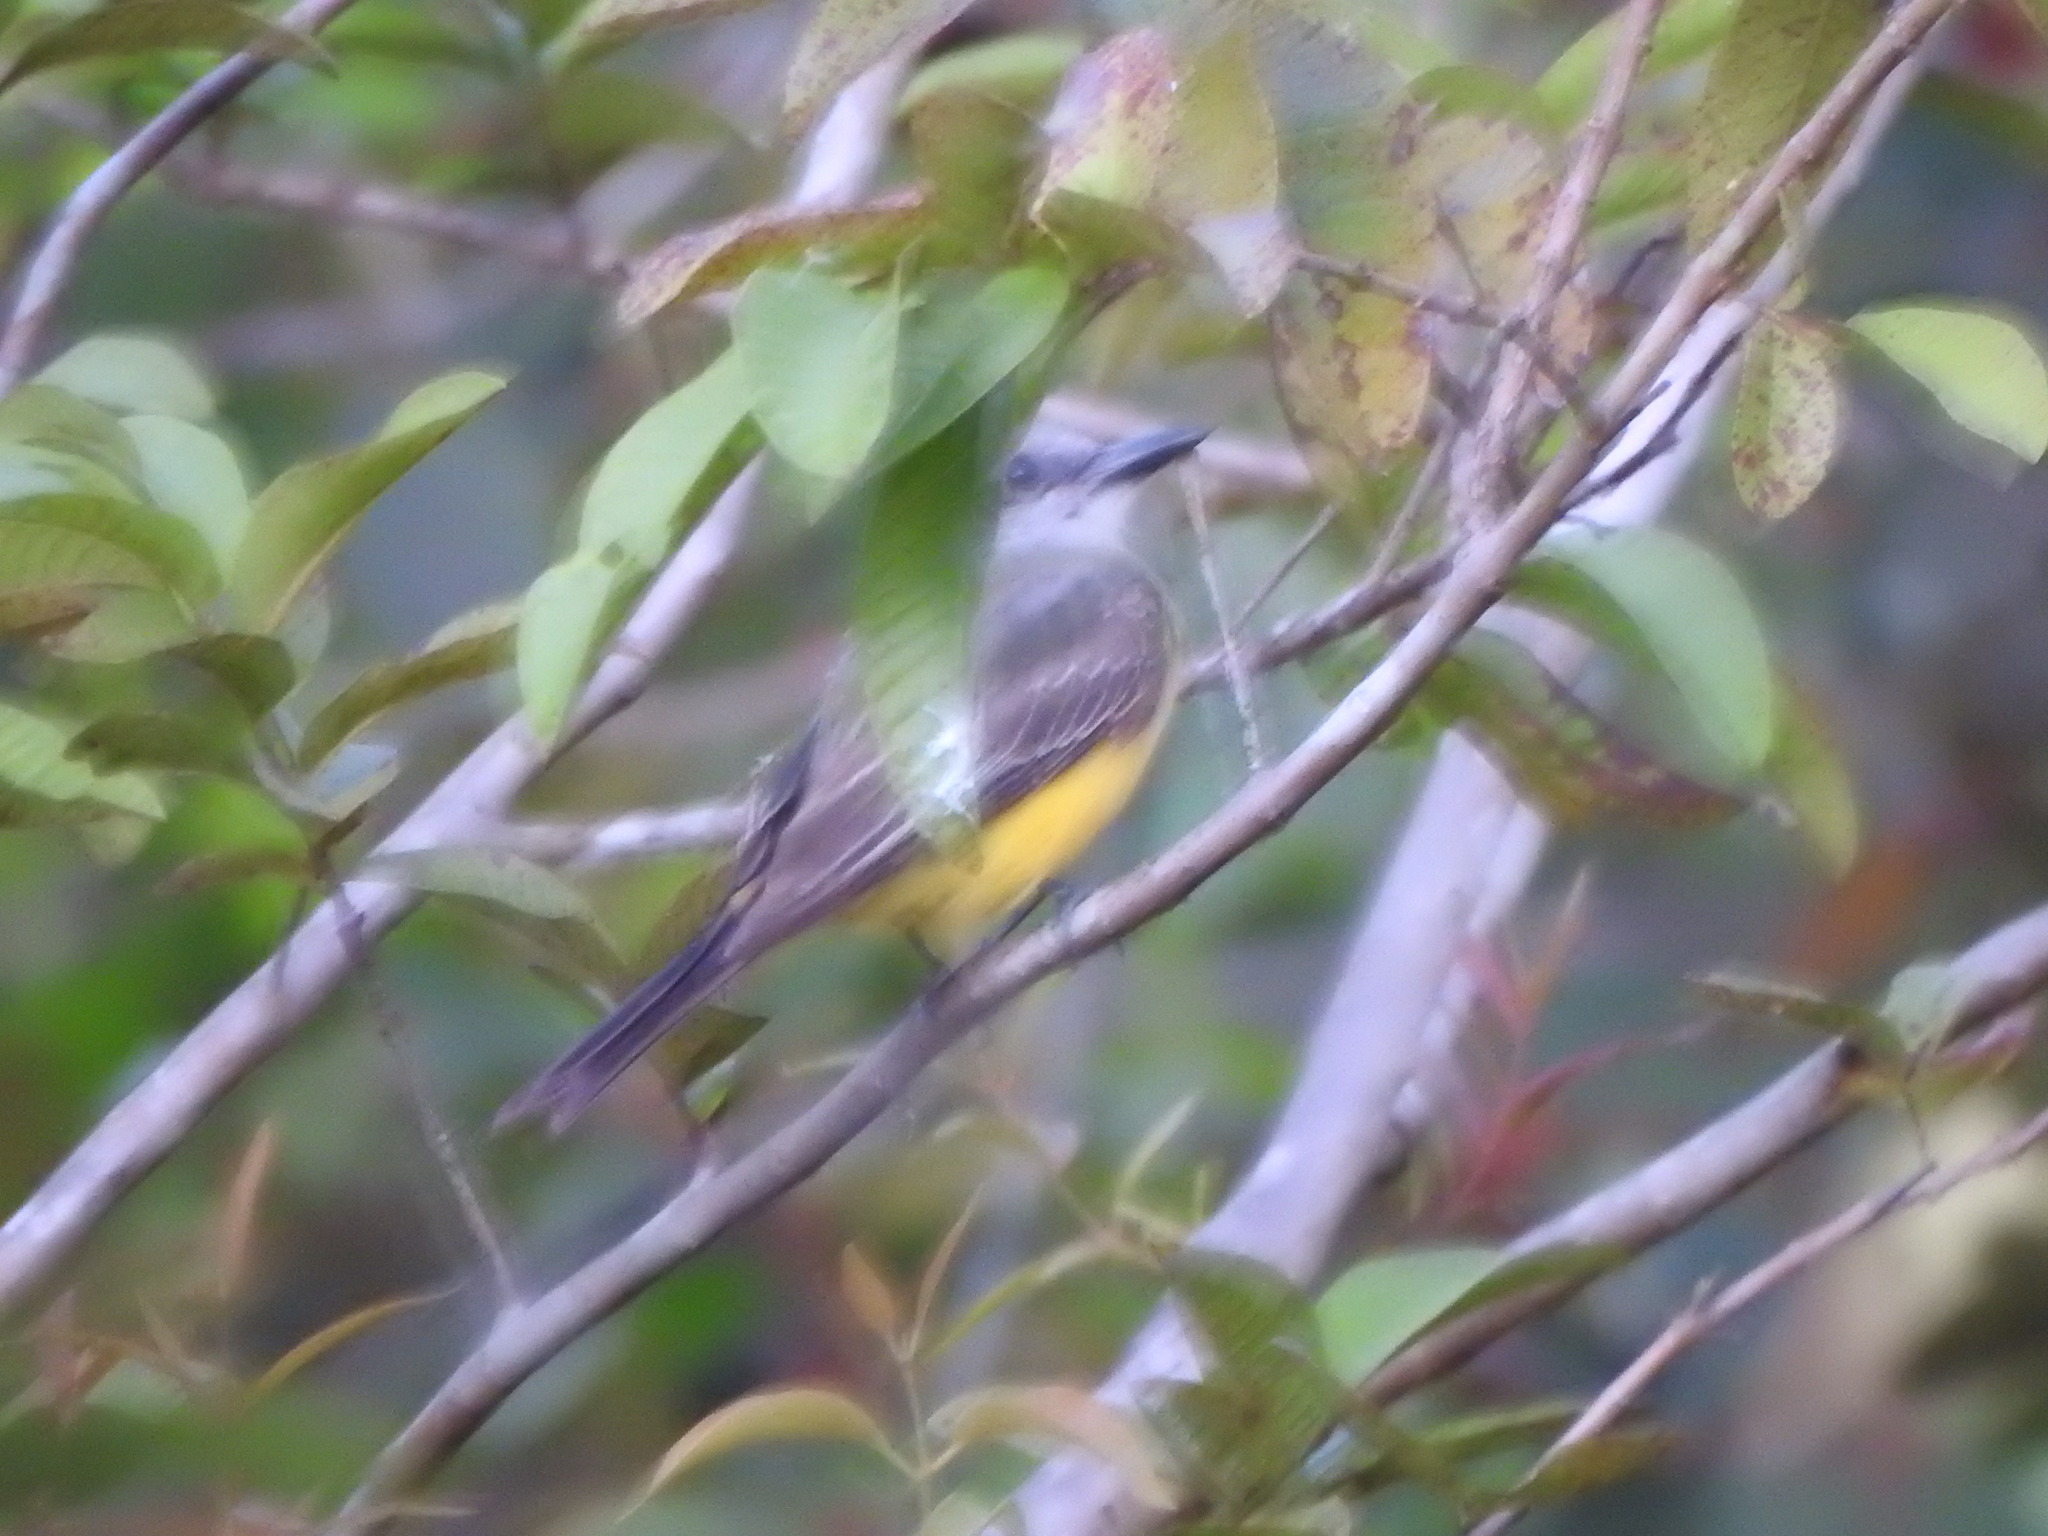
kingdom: Animalia
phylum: Chordata
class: Aves
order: Passeriformes
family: Tyrannidae
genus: Tyrannus
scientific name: Tyrannus melancholicus
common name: Tropical kingbird
